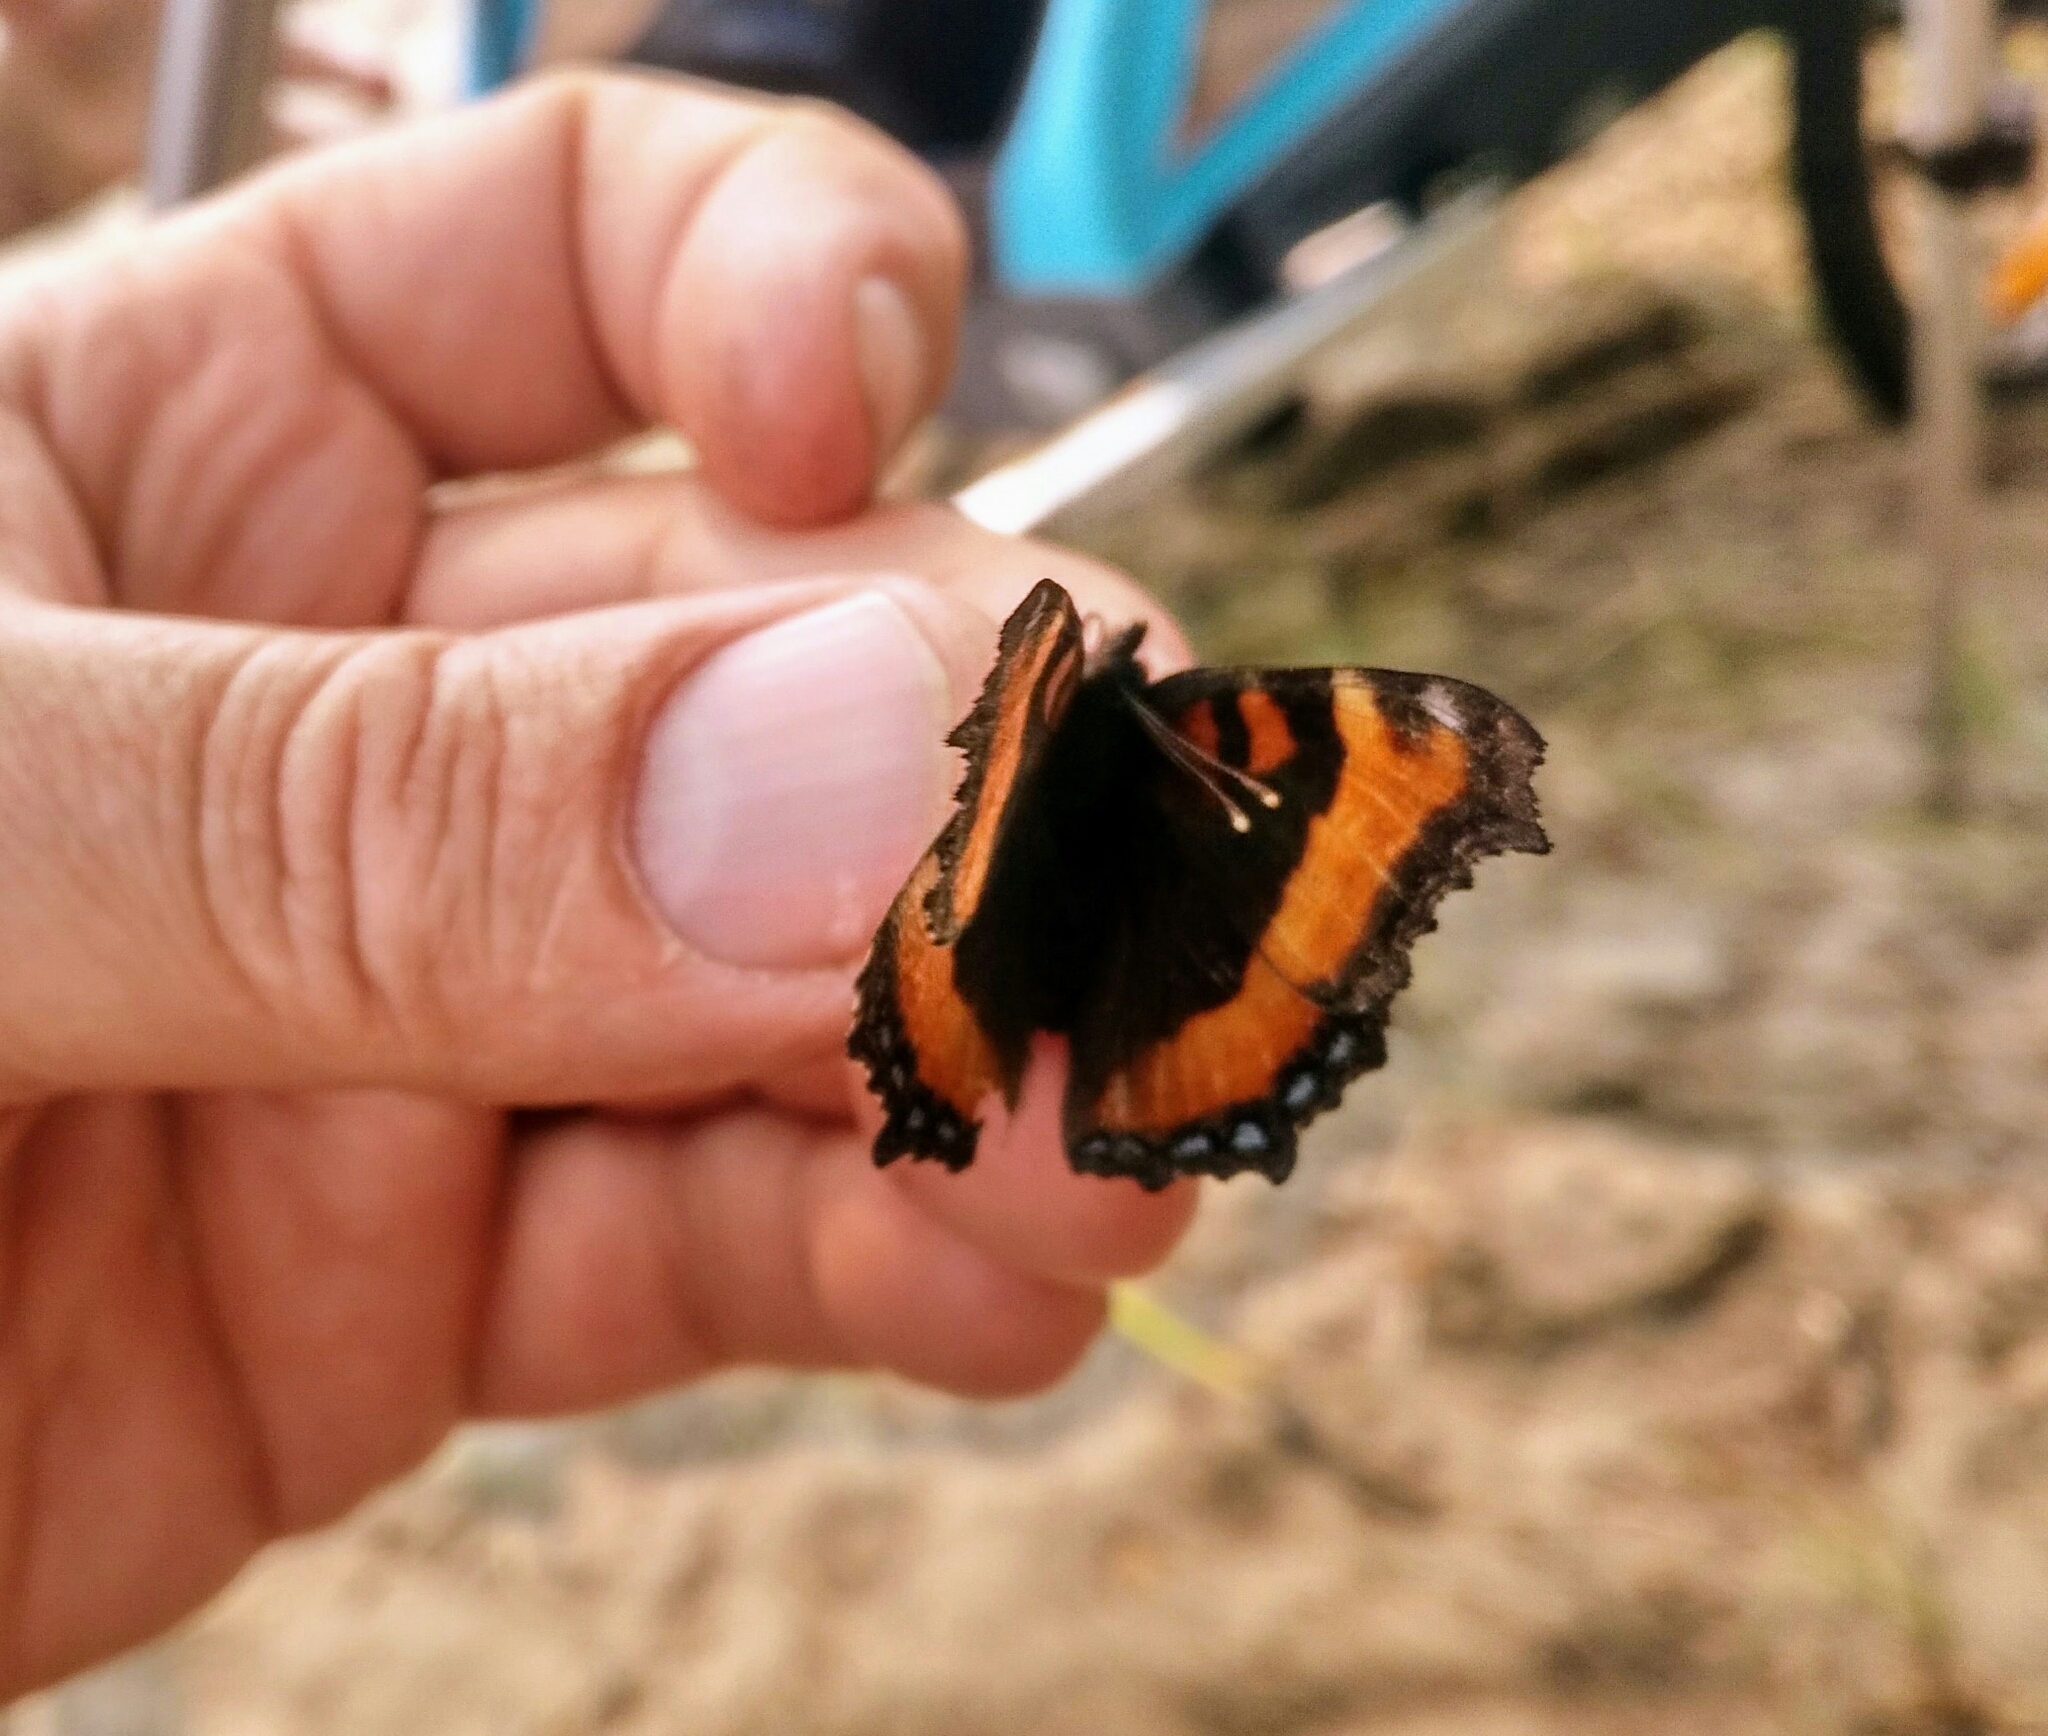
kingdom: Animalia
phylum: Arthropoda
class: Insecta
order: Lepidoptera
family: Nymphalidae
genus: Aglais
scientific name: Aglais milberti
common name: Milbert's tortoiseshell
